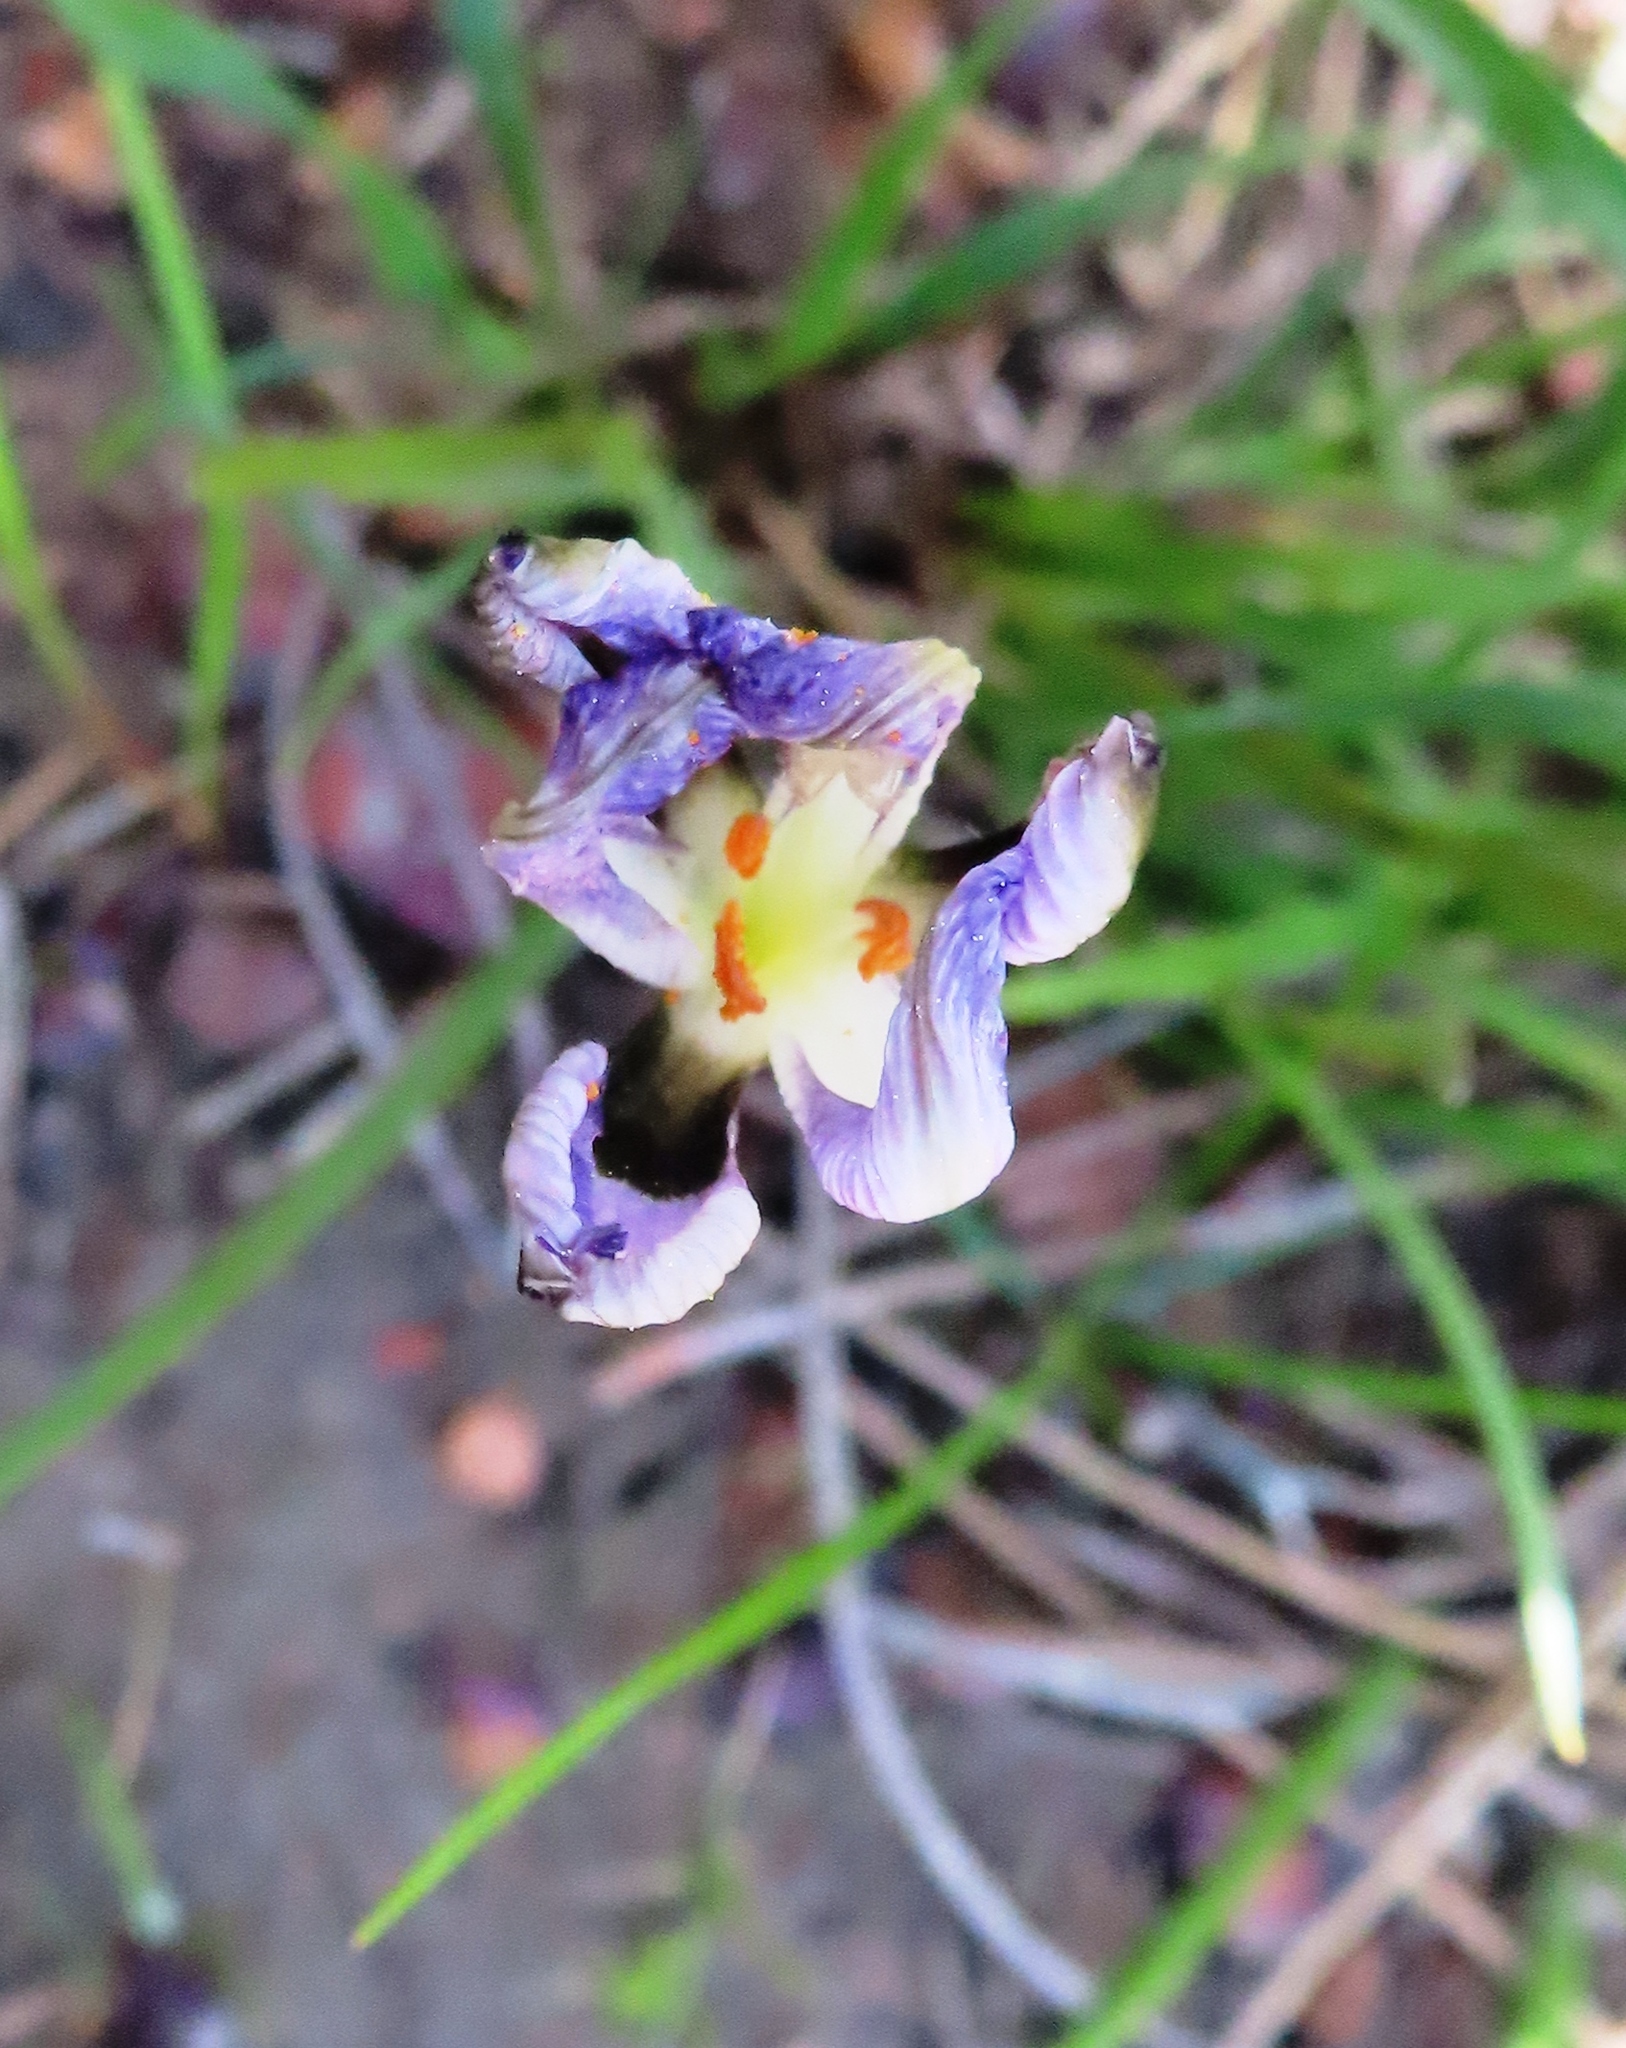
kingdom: Plantae
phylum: Tracheophyta
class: Liliopsida
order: Asparagales
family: Iridaceae
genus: Aristea
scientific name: Aristea teretifolia
